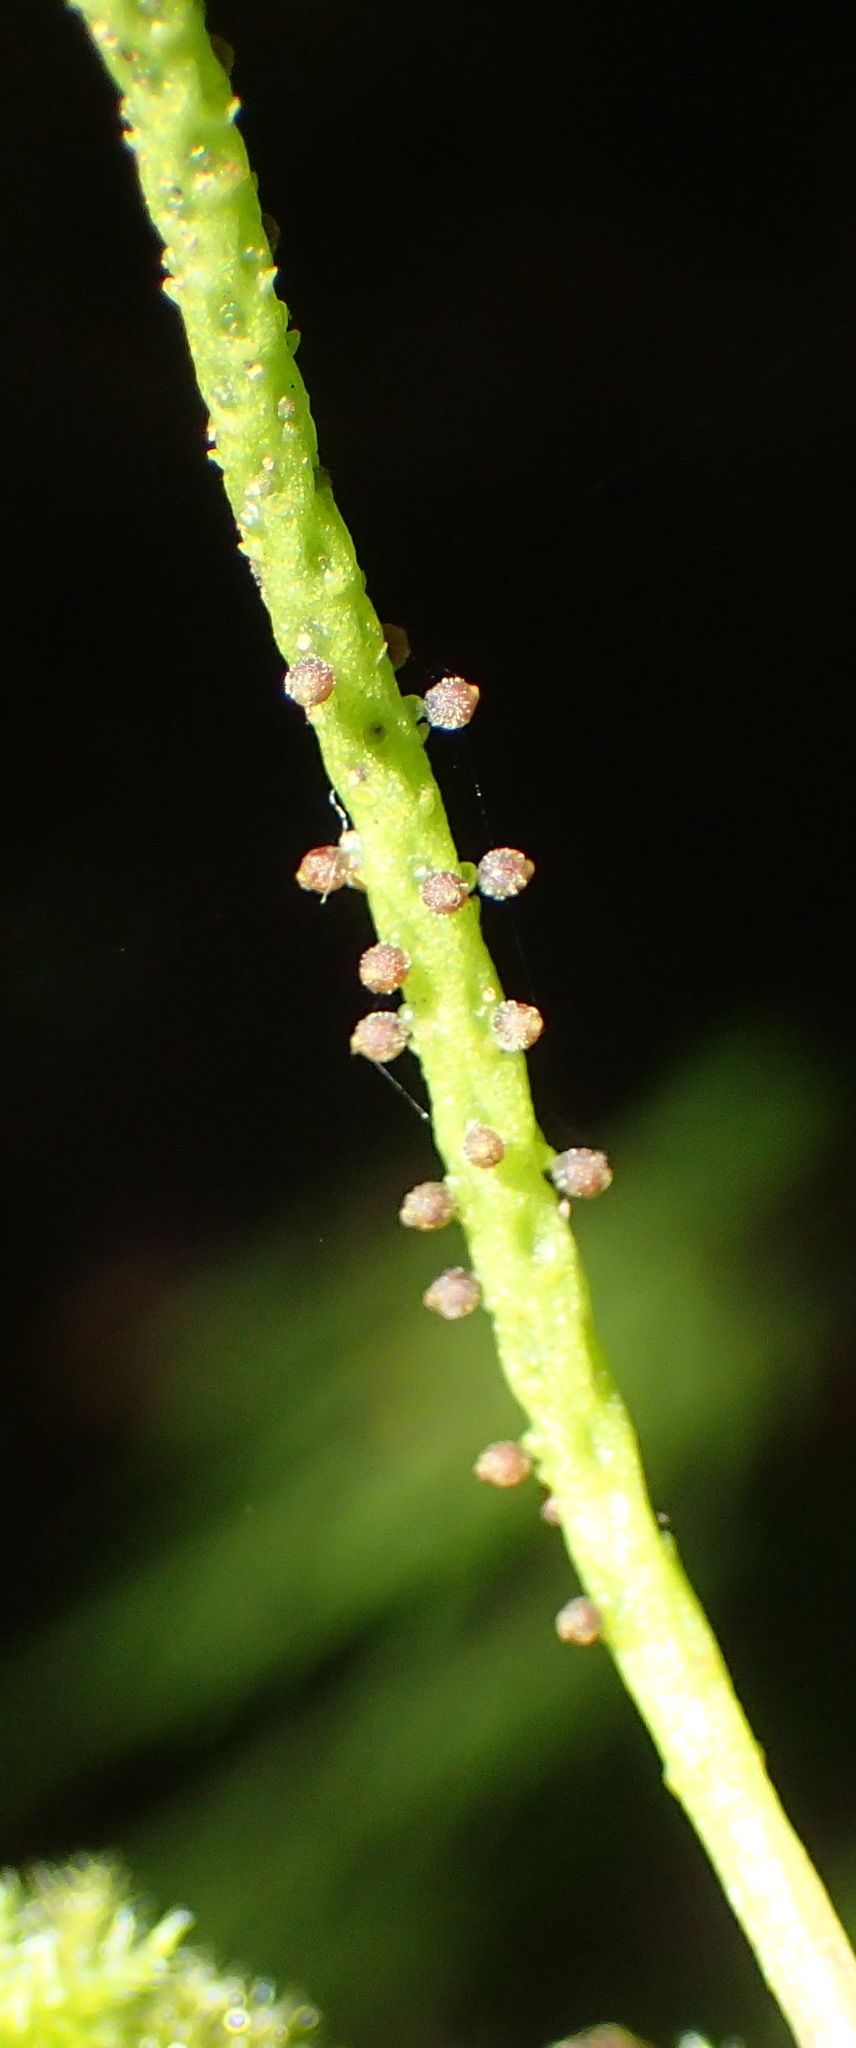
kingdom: Plantae
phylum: Tracheophyta
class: Magnoliopsida
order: Piperales
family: Piperaceae
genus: Peperomia
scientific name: Peperomia retusa
